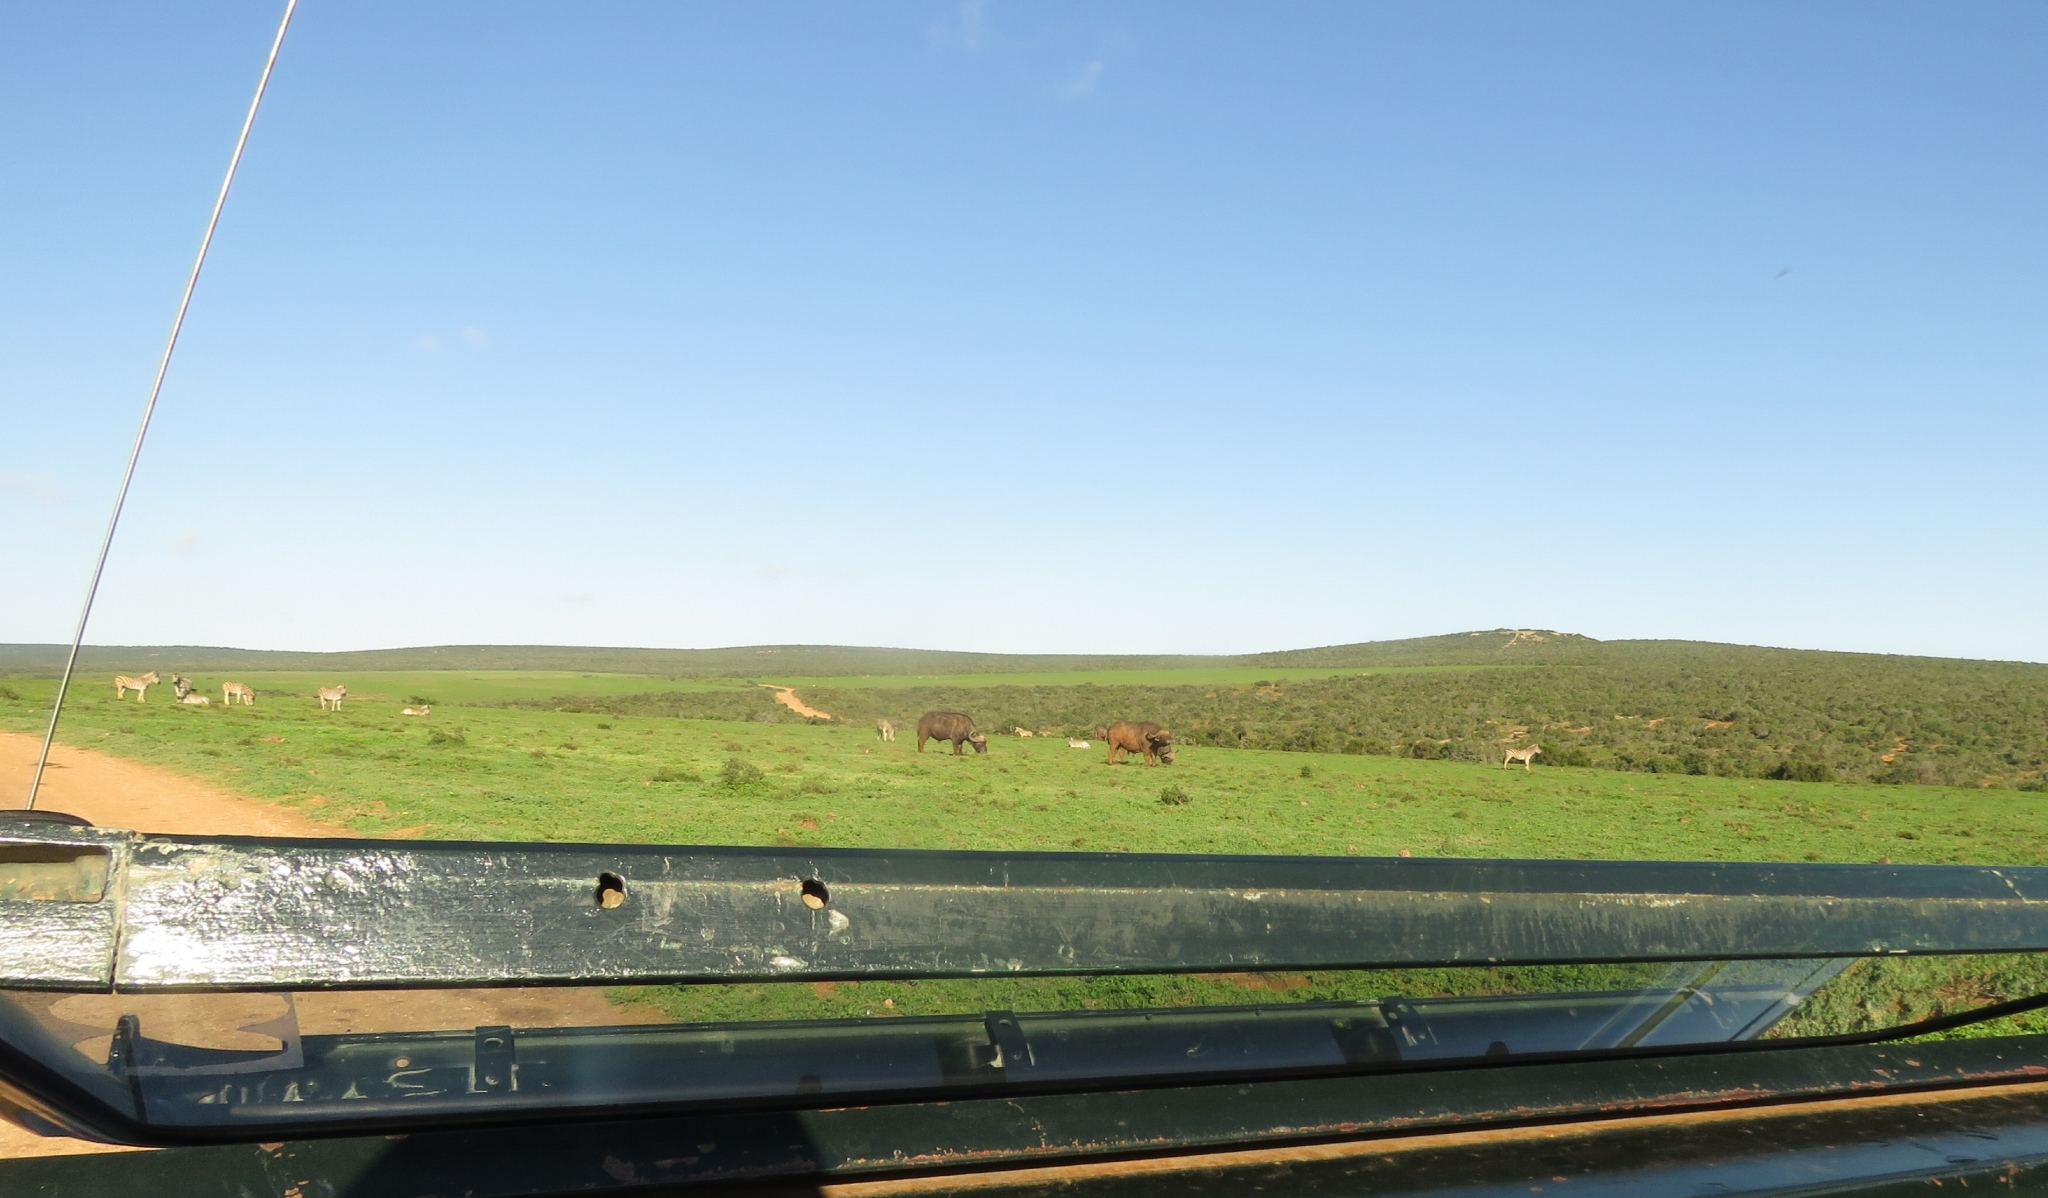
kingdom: Animalia
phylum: Chordata
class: Mammalia
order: Artiodactyla
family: Bovidae
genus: Syncerus
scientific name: Syncerus caffer
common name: African buffalo
